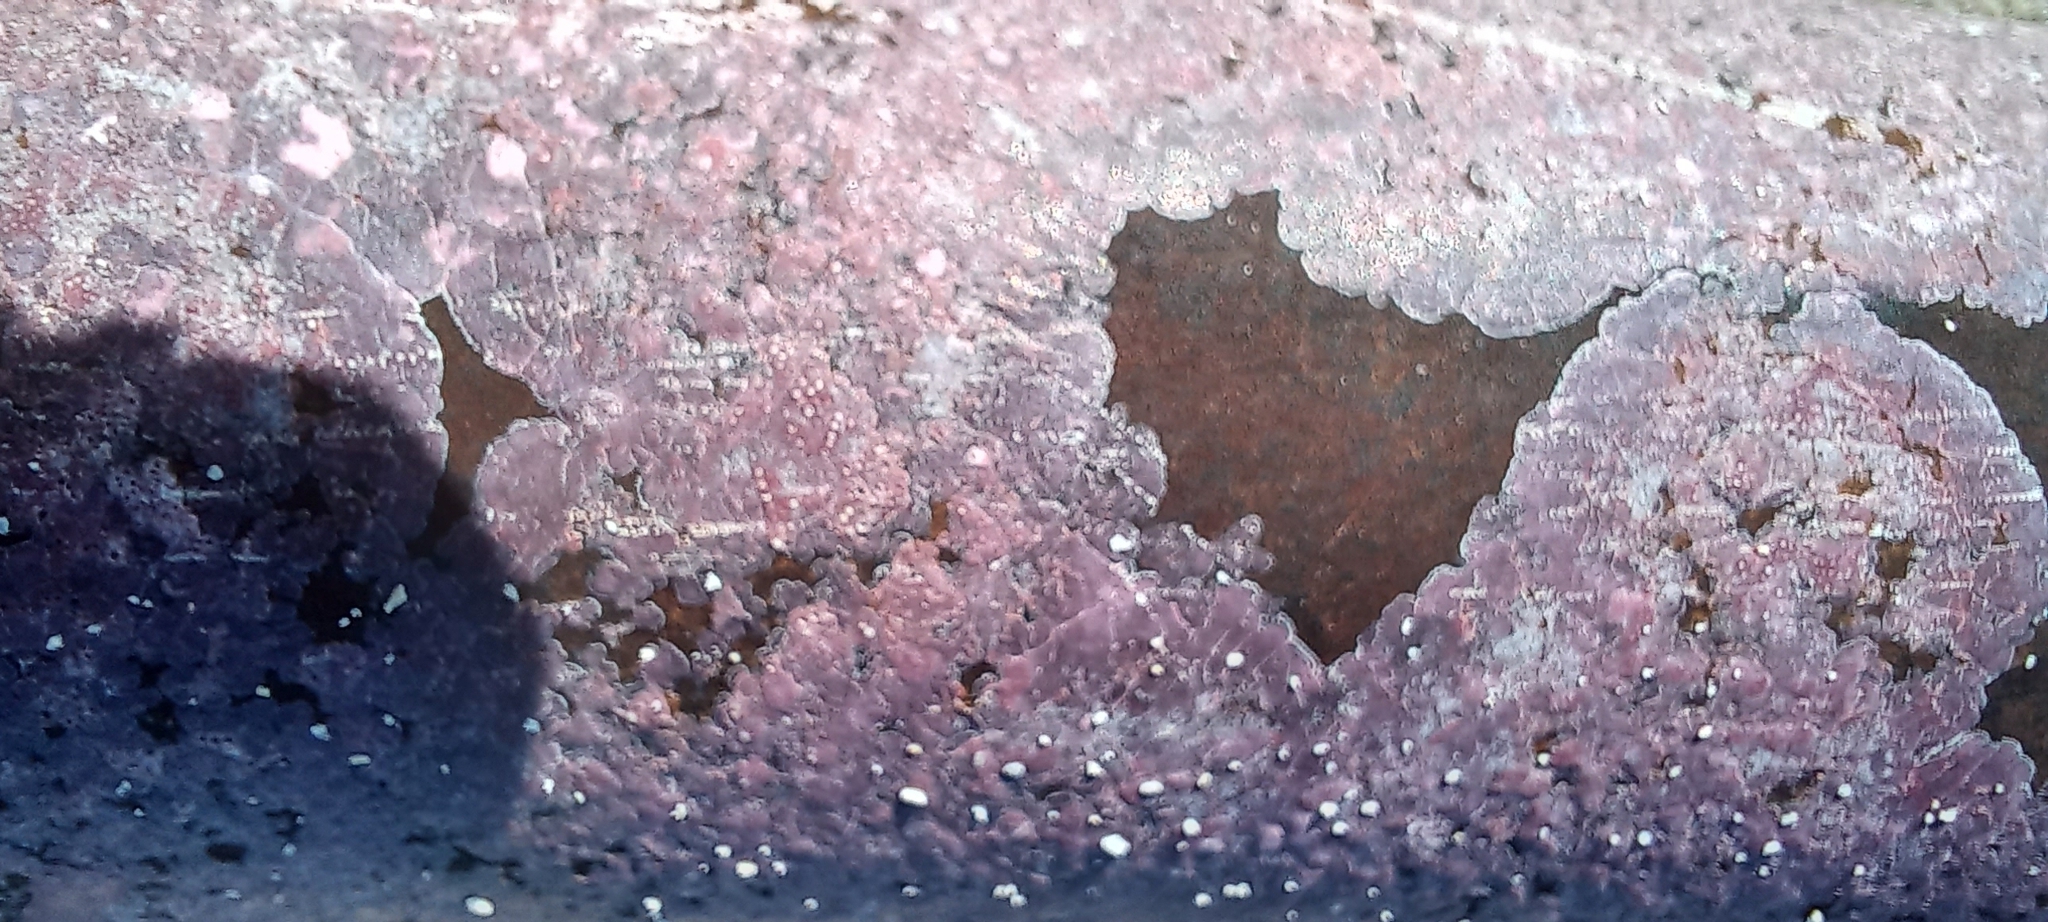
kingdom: Plantae
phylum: Rhodophyta
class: Florideophyceae
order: Corallinales
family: Hapalidiaceae
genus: Phymatolithon
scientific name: Phymatolithon
